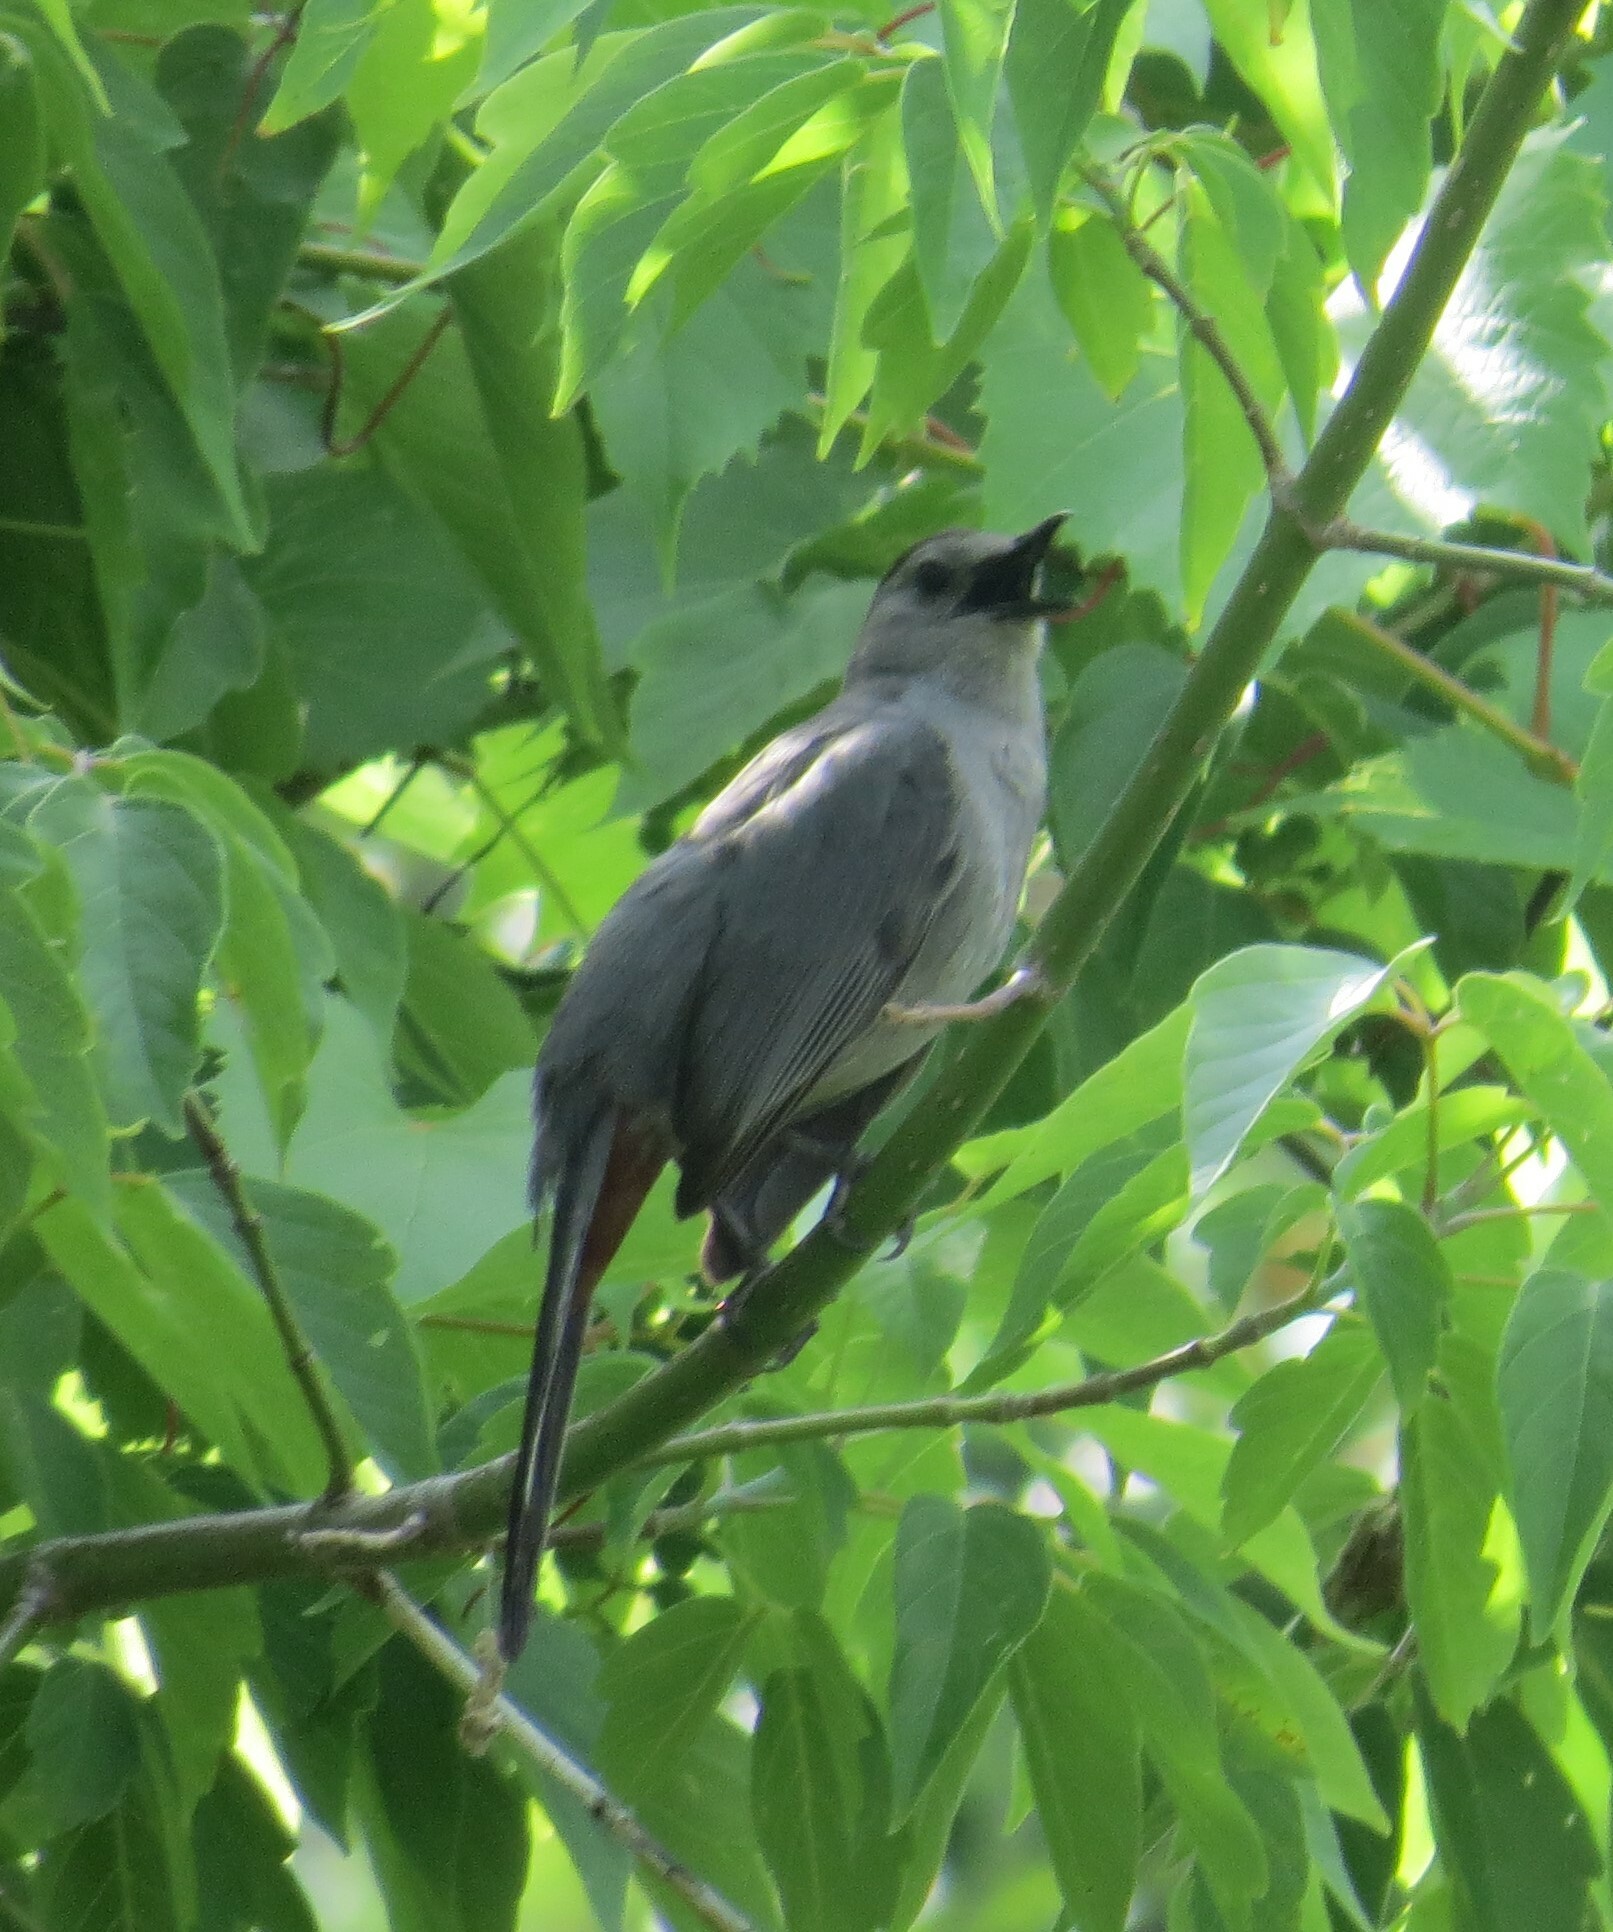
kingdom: Animalia
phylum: Chordata
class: Aves
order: Passeriformes
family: Mimidae
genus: Dumetella
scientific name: Dumetella carolinensis
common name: Gray catbird
